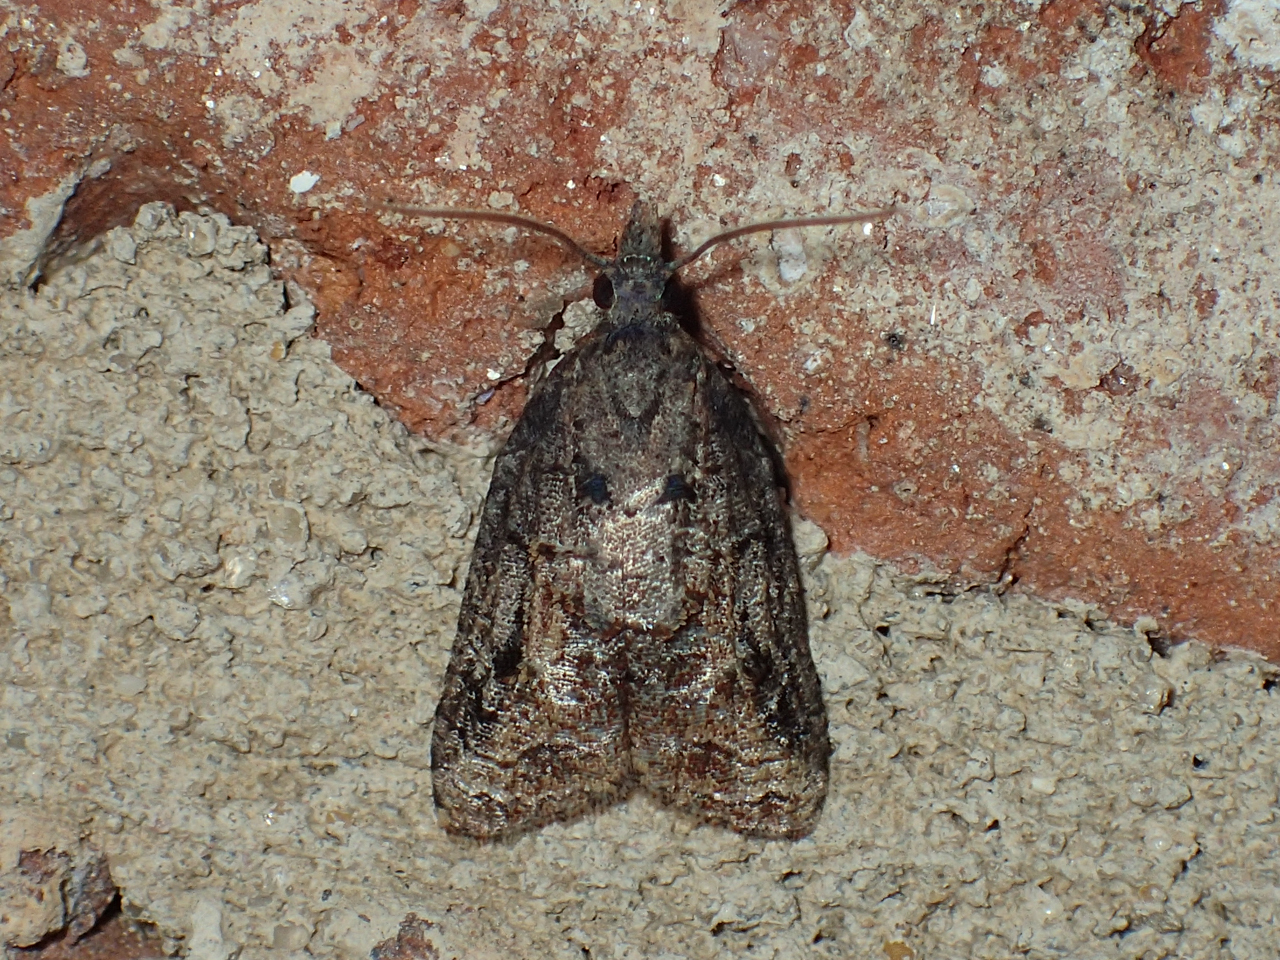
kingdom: Animalia
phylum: Arthropoda
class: Insecta
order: Lepidoptera
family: Tortricidae
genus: Platynota
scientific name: Platynota idaeusalis
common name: Tufted apple bud moth
